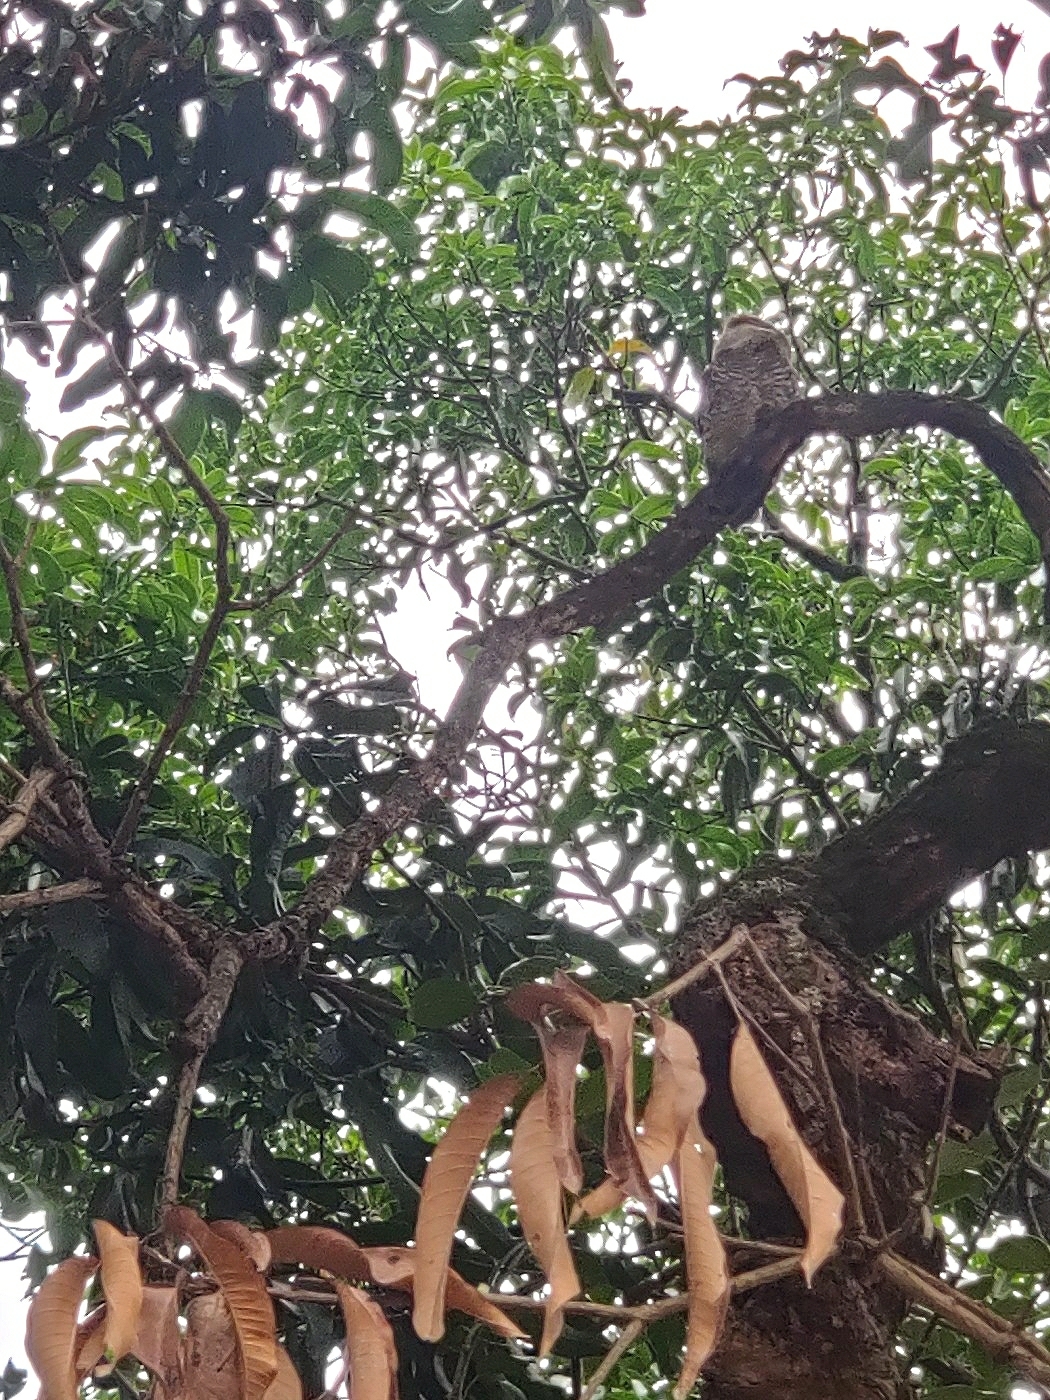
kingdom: Animalia
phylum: Chordata
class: Aves
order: Strigiformes
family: Strigidae
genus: Athene
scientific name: Athene brama
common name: Spotted owlet
